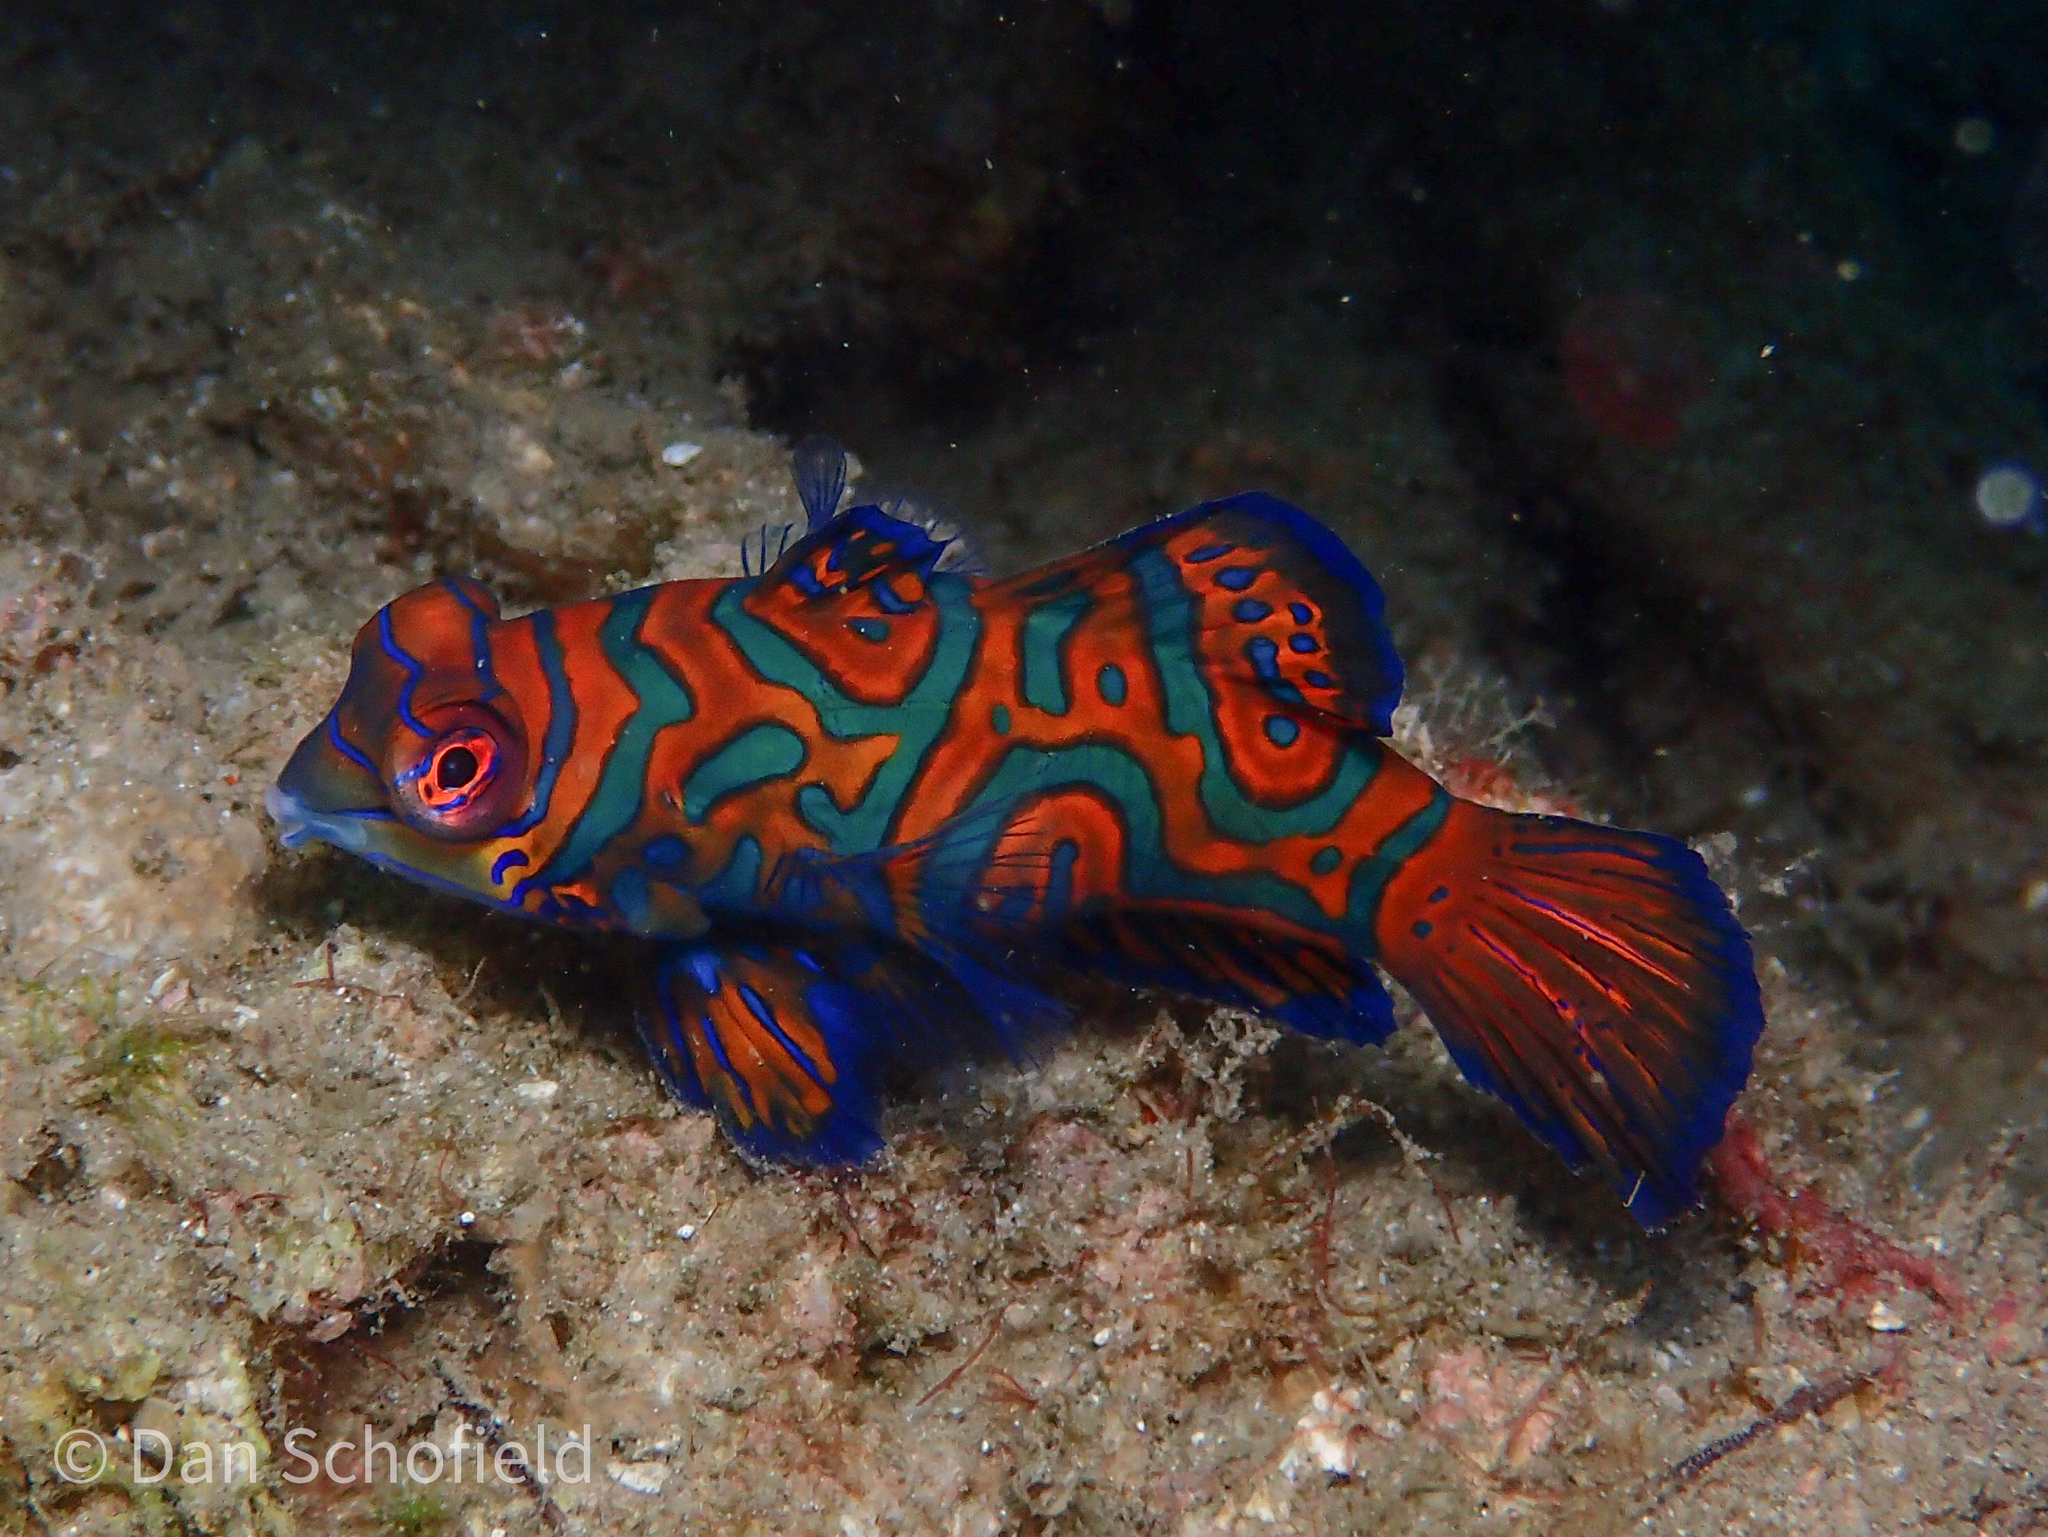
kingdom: Animalia
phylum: Chordata
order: Perciformes
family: Callionymidae
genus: Synchiropus
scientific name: Synchiropus splendidus
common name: Mandarinfish
